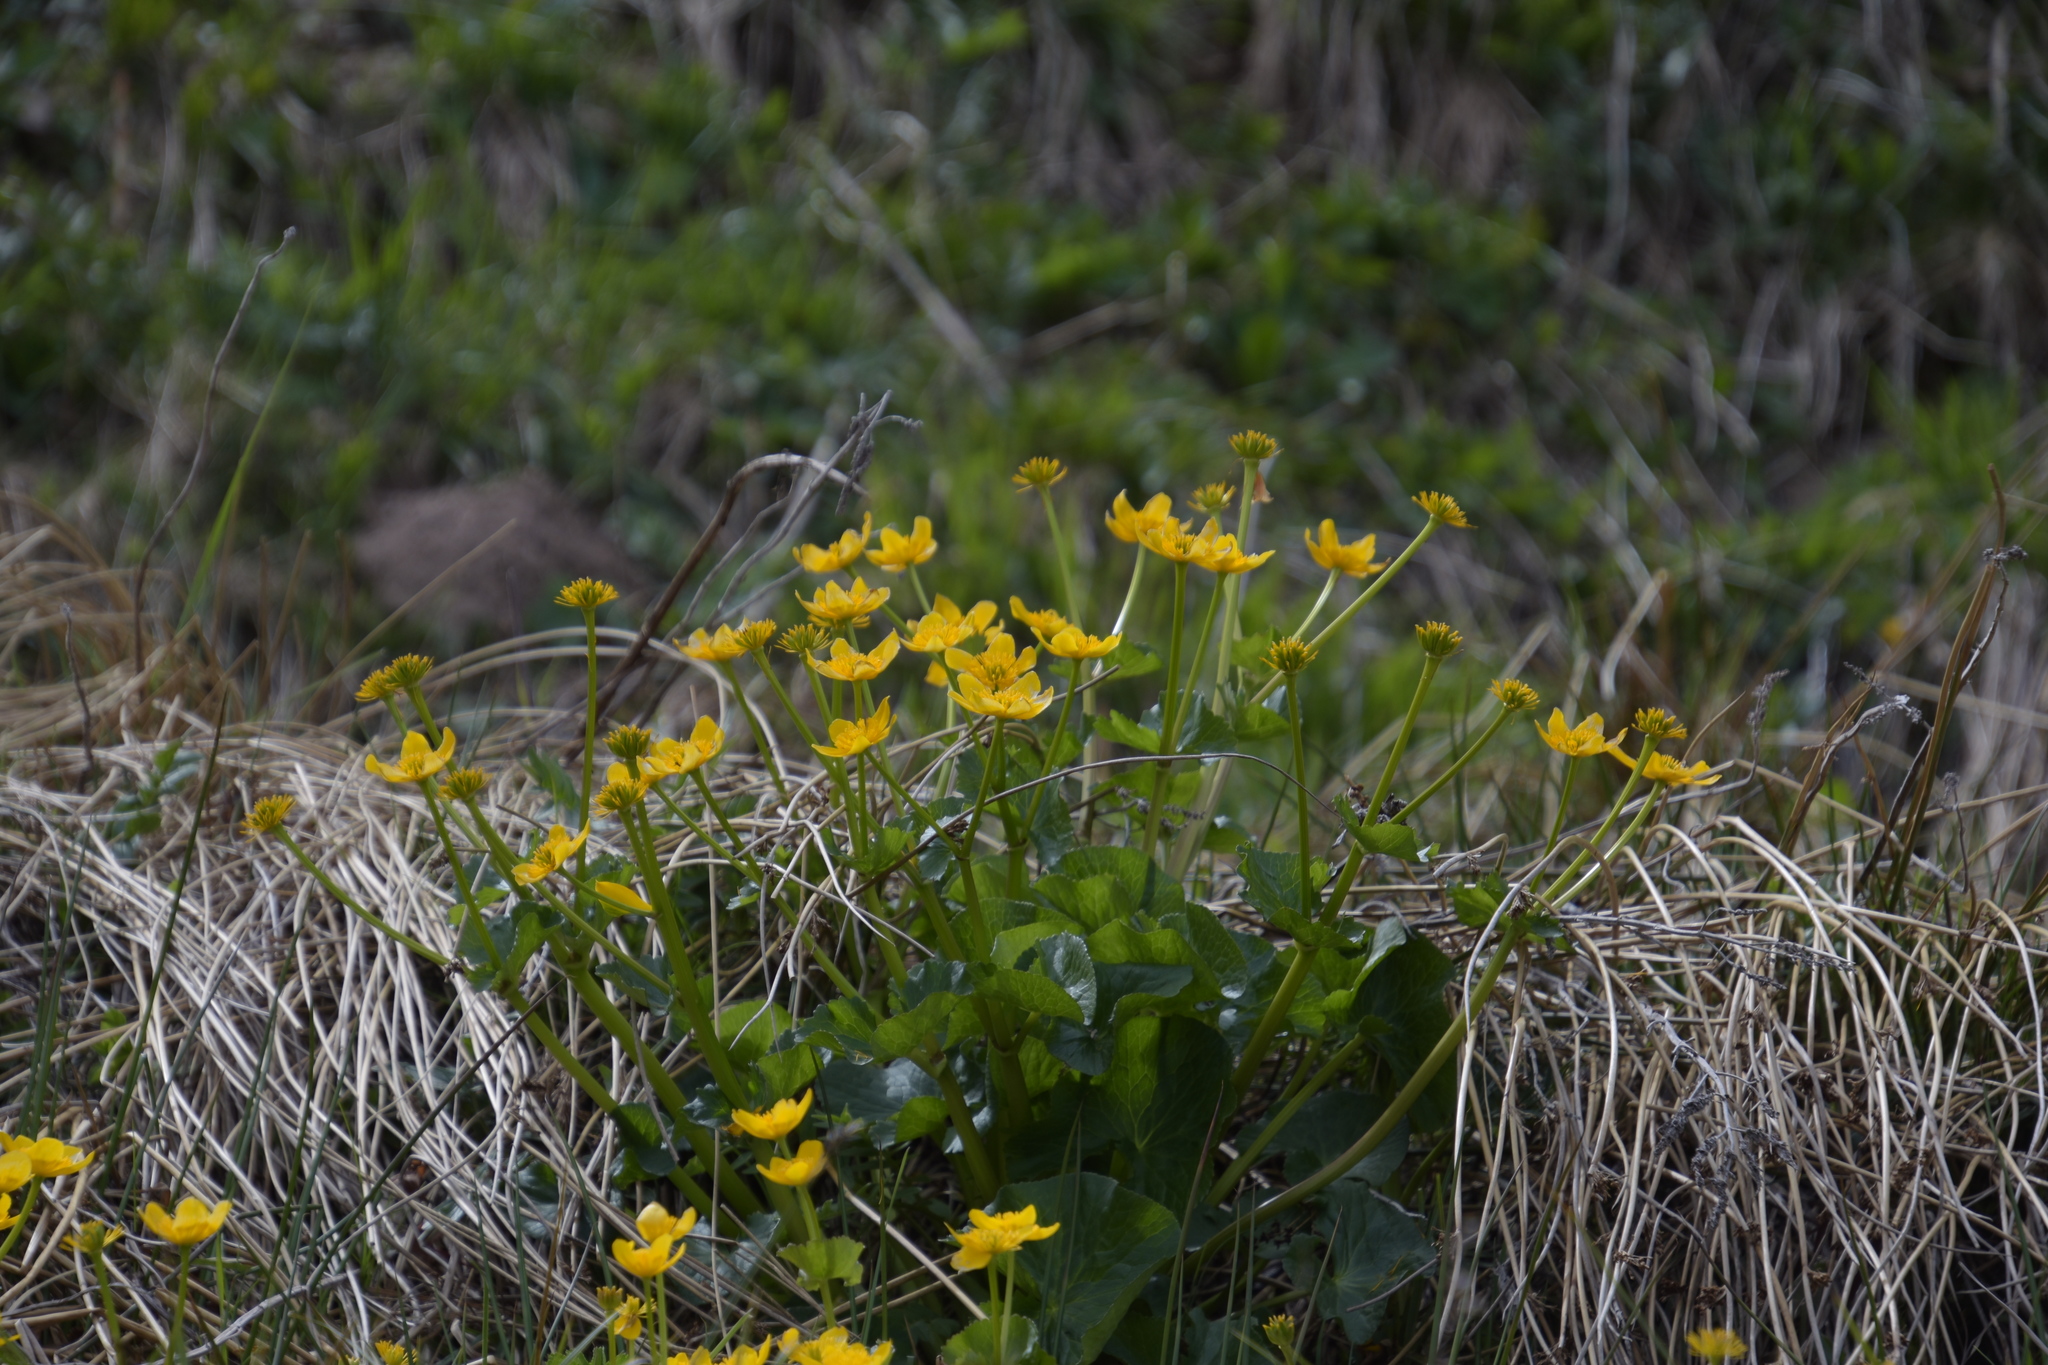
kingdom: Plantae
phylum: Tracheophyta
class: Magnoliopsida
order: Ranunculales
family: Ranunculaceae
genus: Caltha
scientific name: Caltha palustris
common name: Marsh marigold
